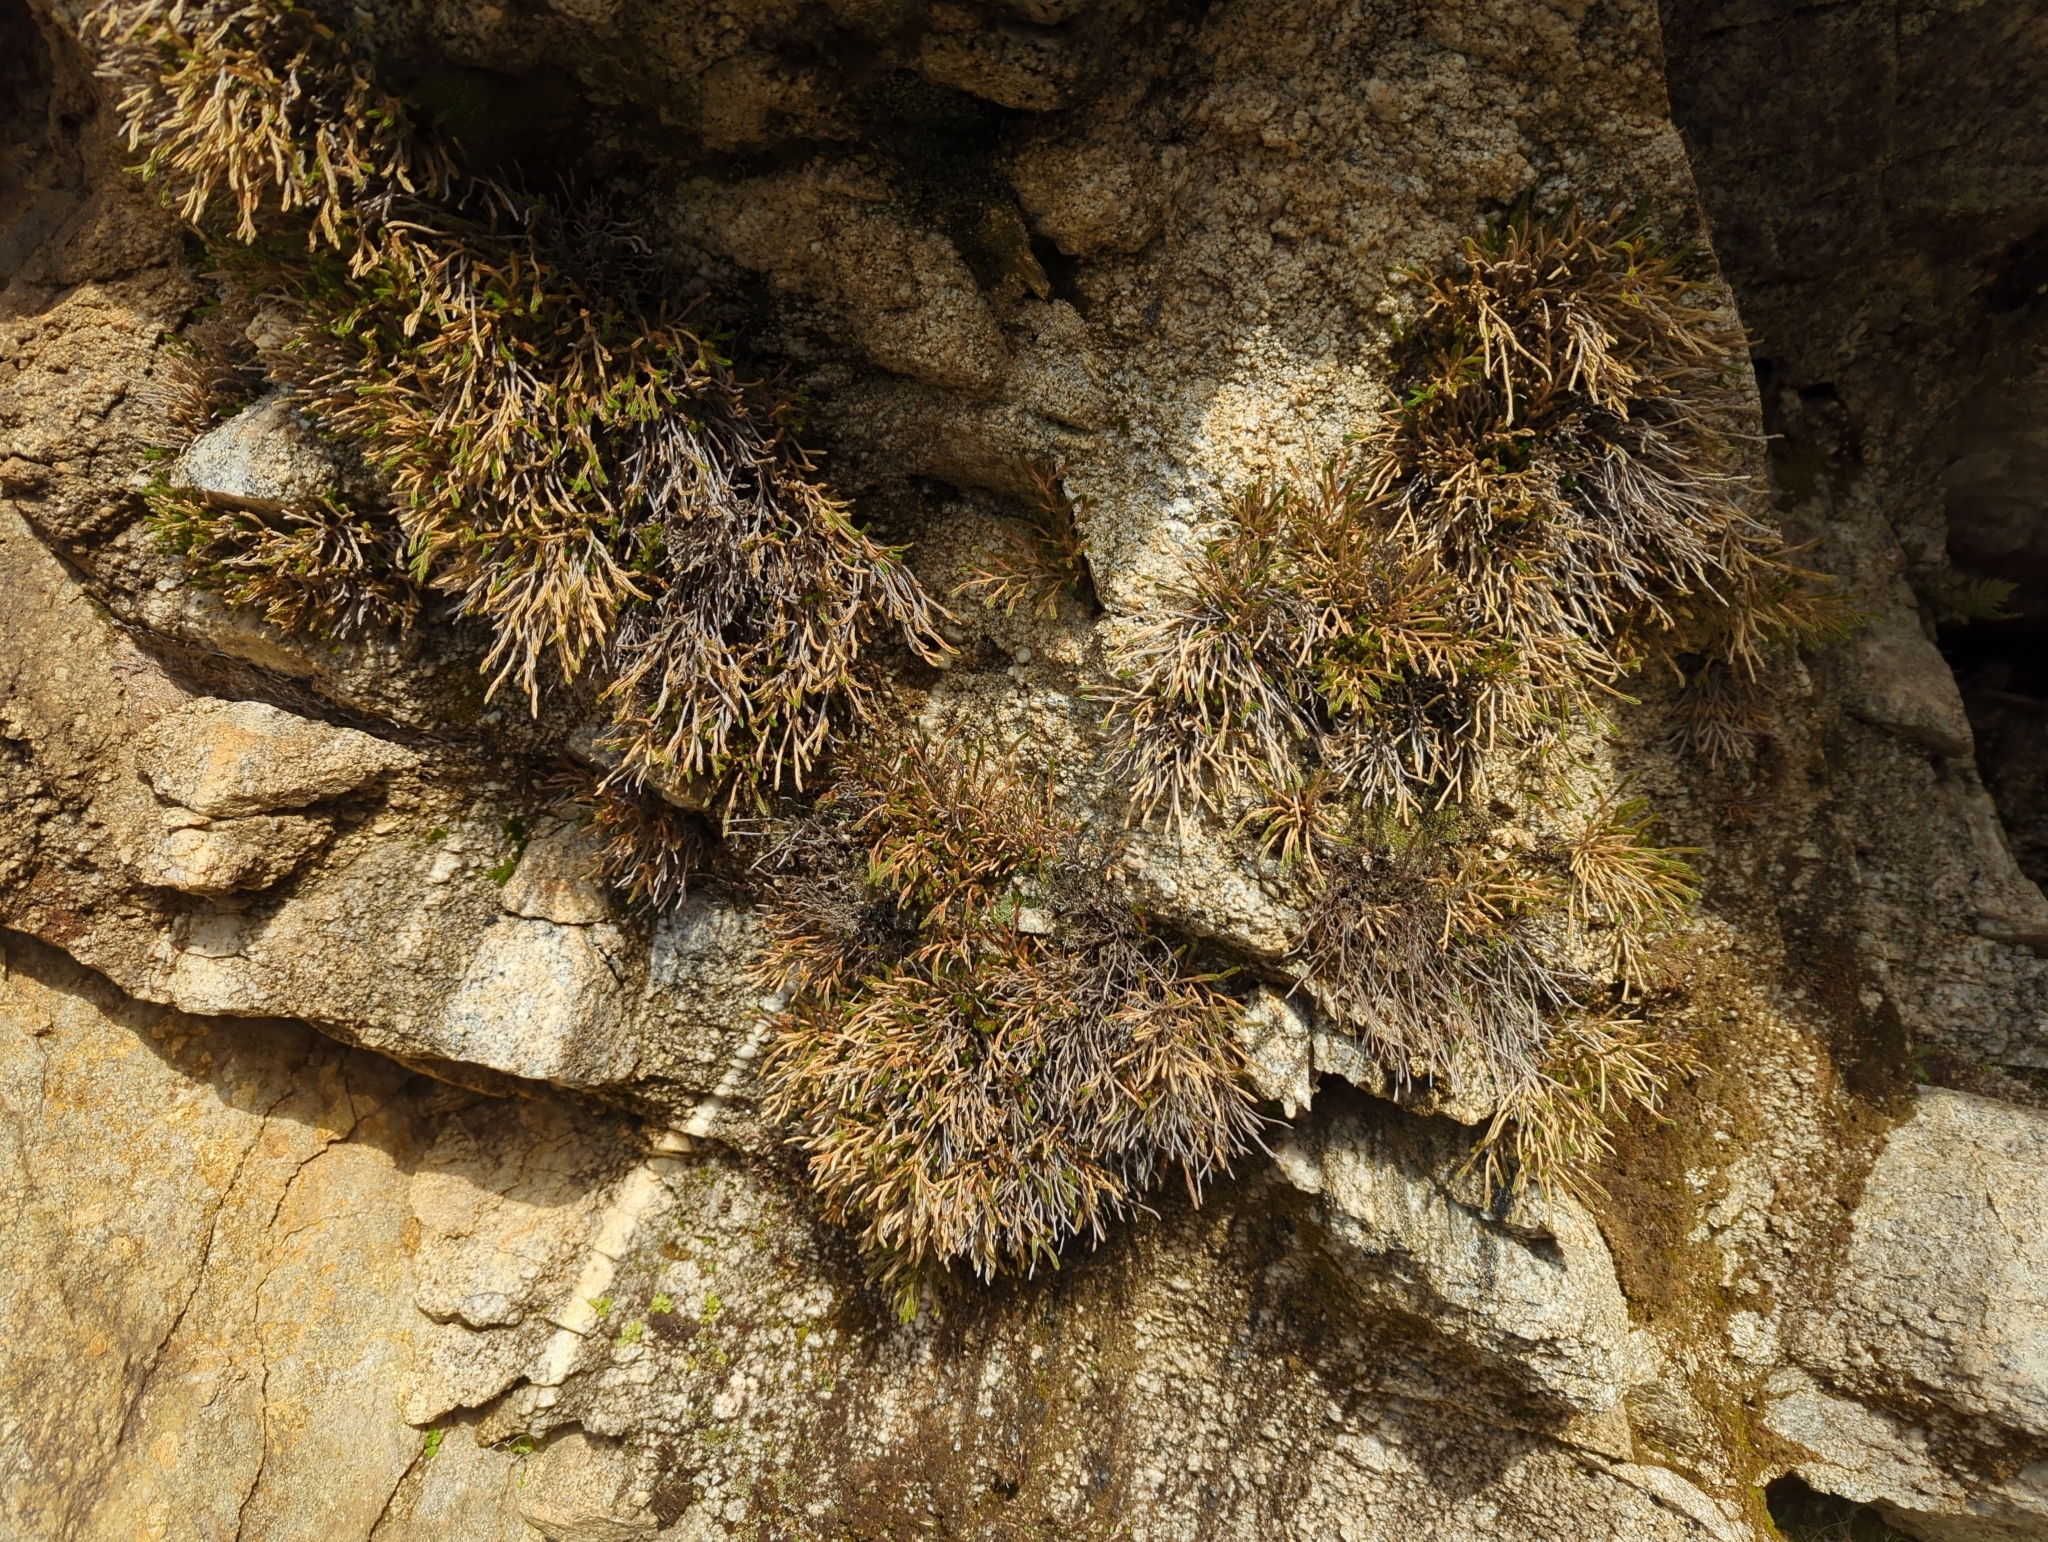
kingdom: Plantae
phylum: Tracheophyta
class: Lycopodiopsida
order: Selaginellales
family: Selaginellaceae
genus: Selaginella
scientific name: Selaginella bigelovii
